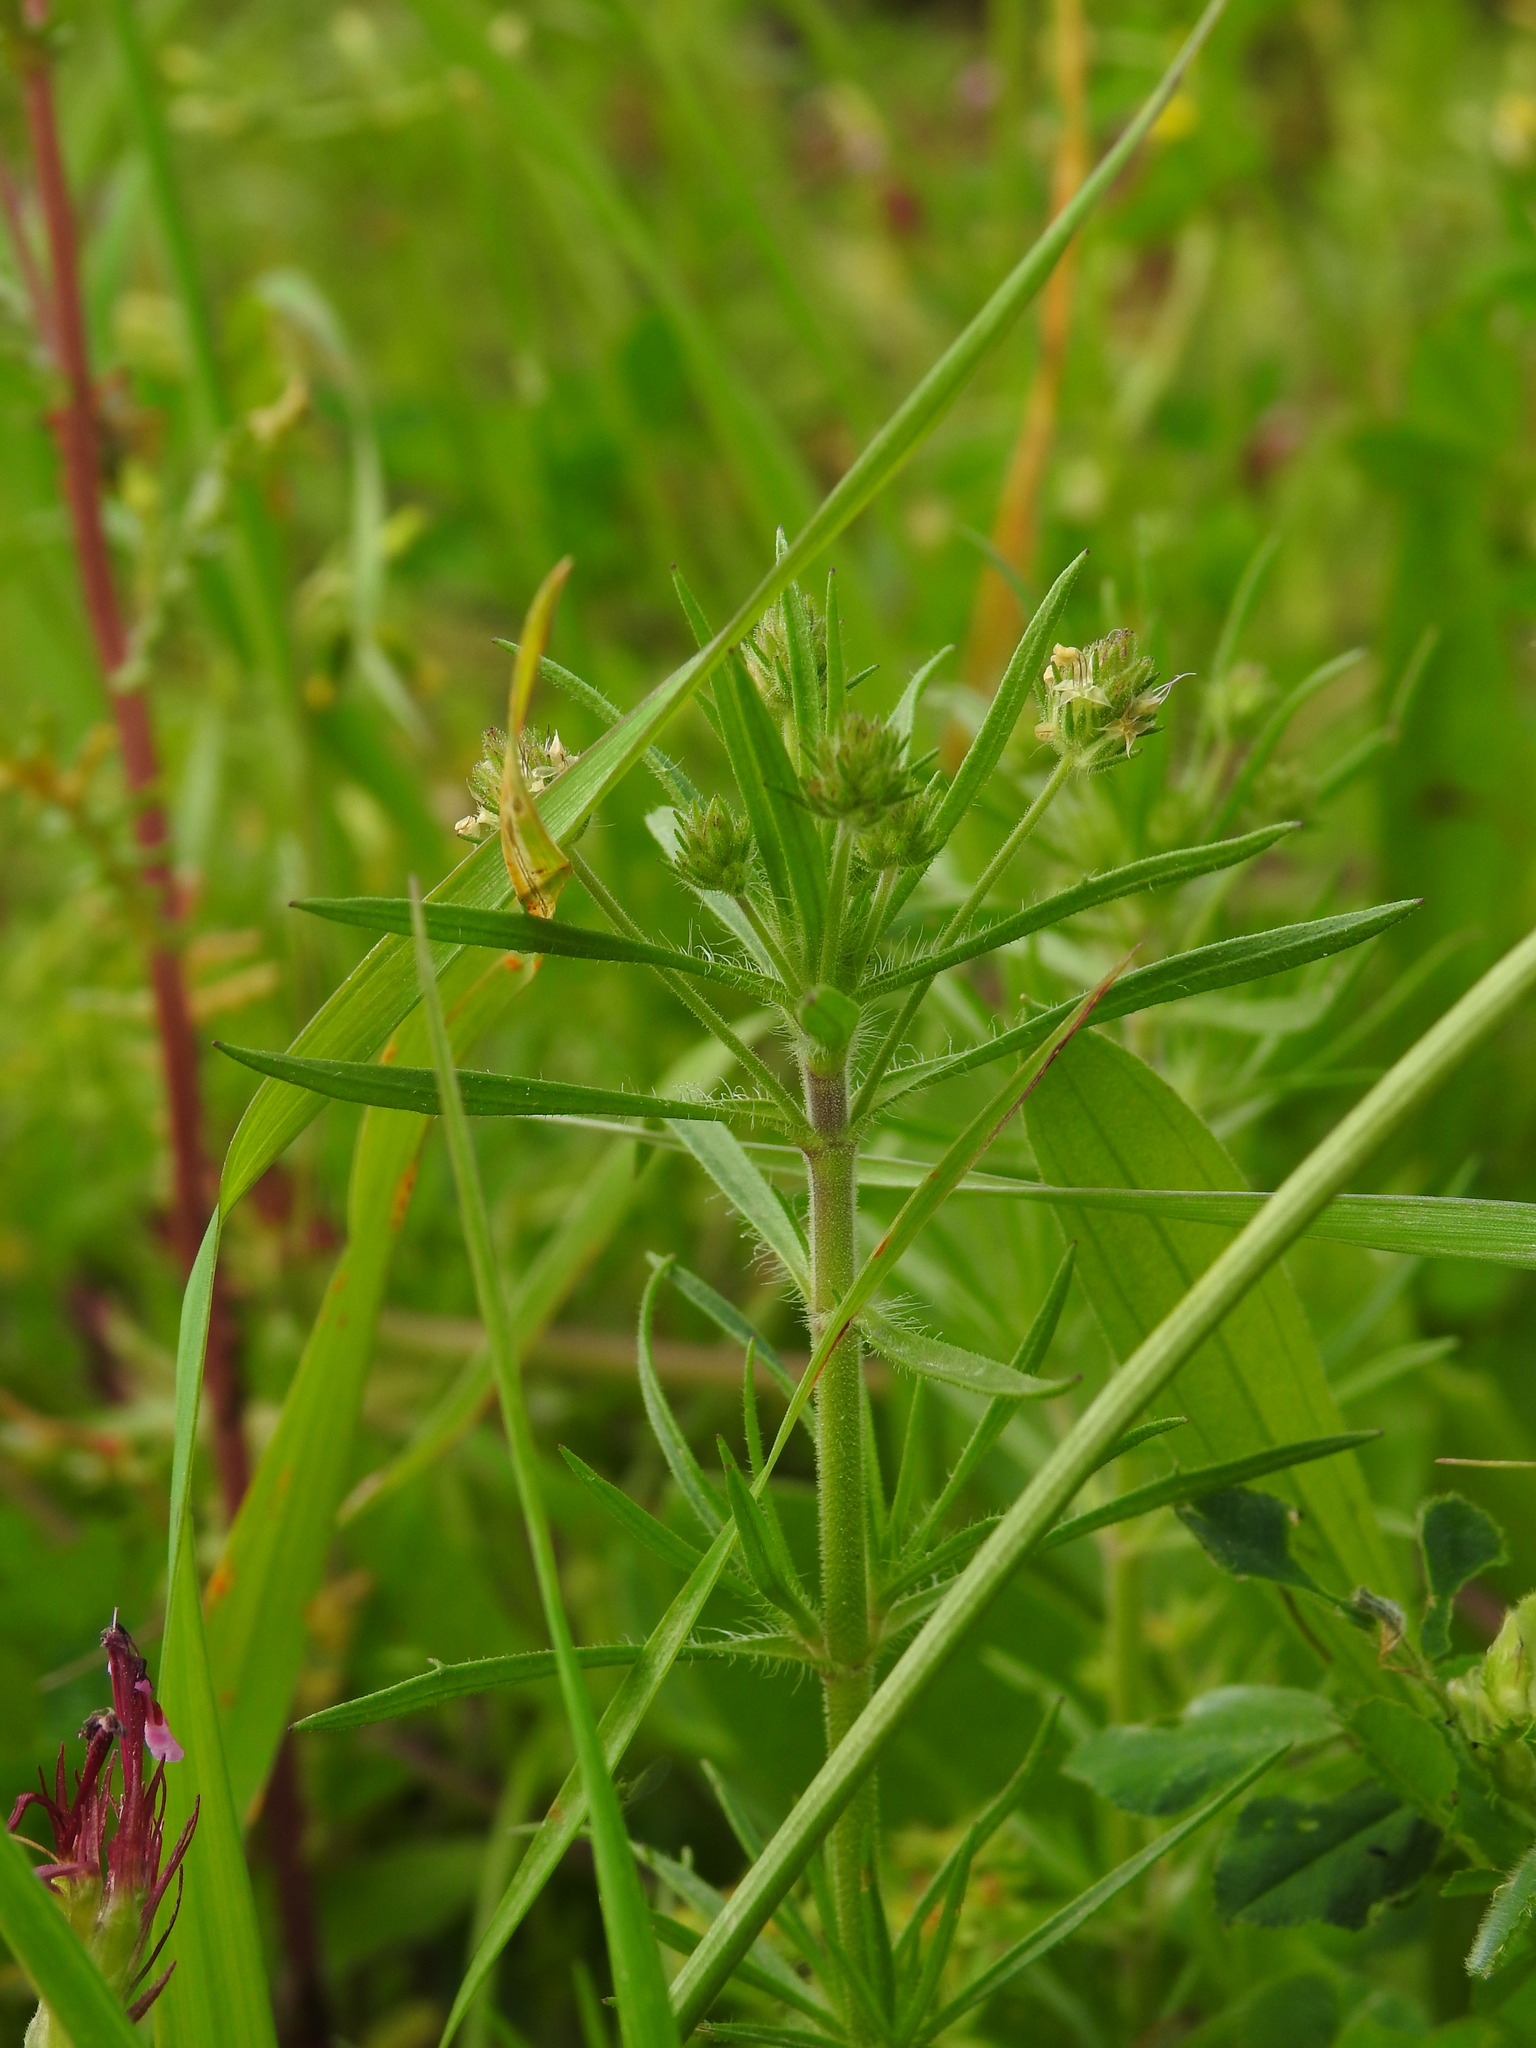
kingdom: Plantae
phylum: Tracheophyta
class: Magnoliopsida
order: Lamiales
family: Plantaginaceae
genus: Plantago
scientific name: Plantago afra
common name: Glandular plantain
